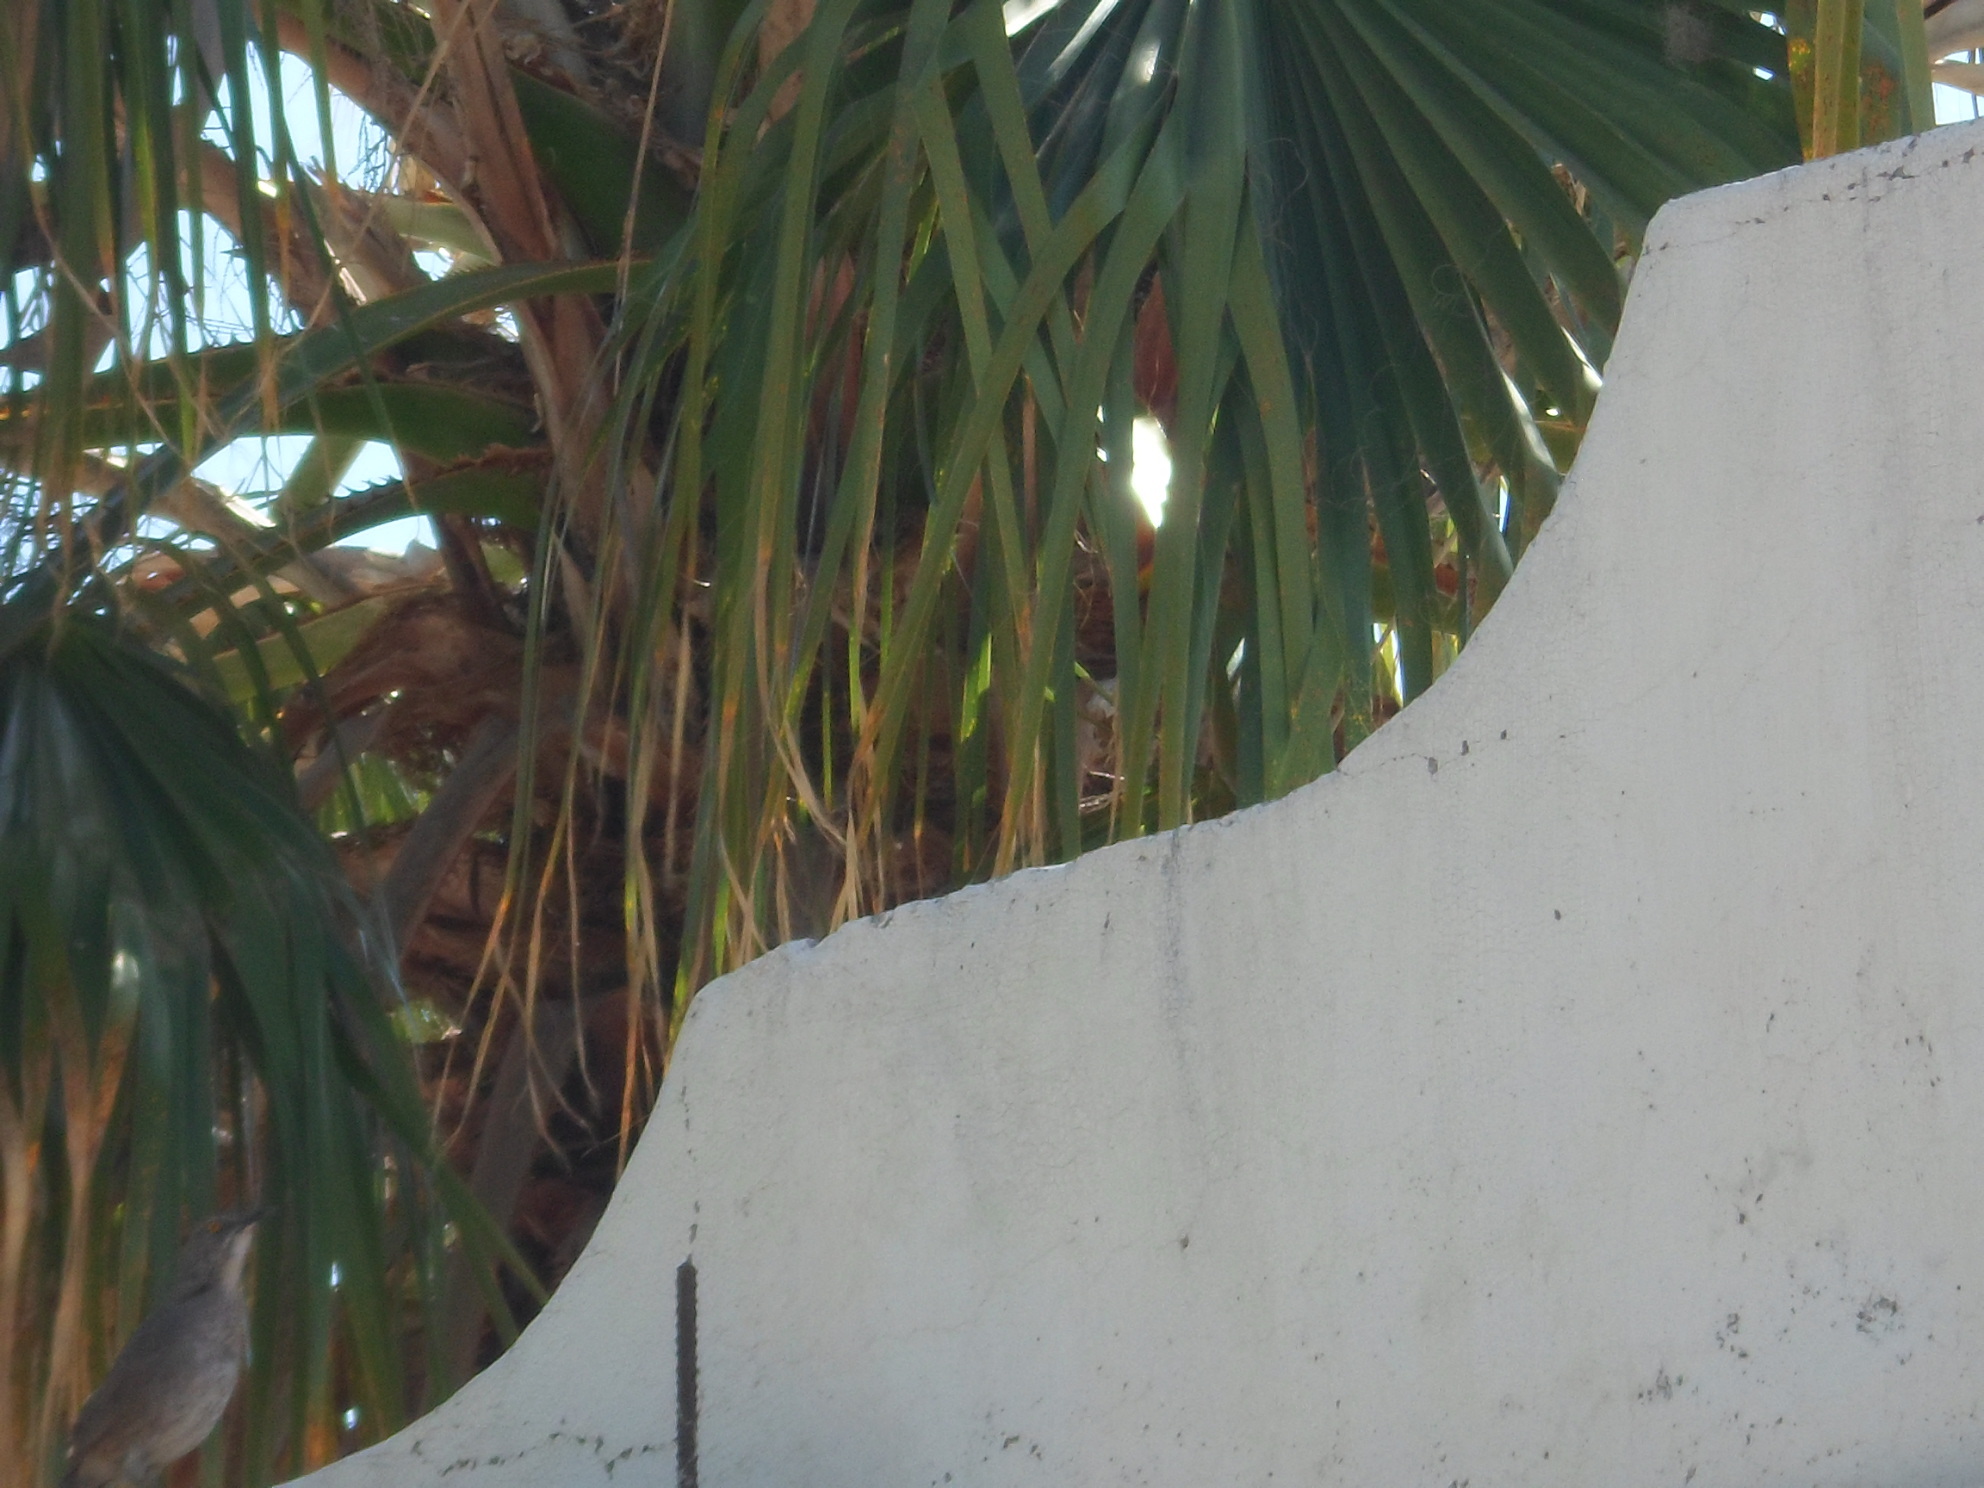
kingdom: Animalia
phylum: Chordata
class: Aves
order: Passeriformes
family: Mimidae
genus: Toxostoma
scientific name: Toxostoma curvirostre
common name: Curve-billed thrasher
